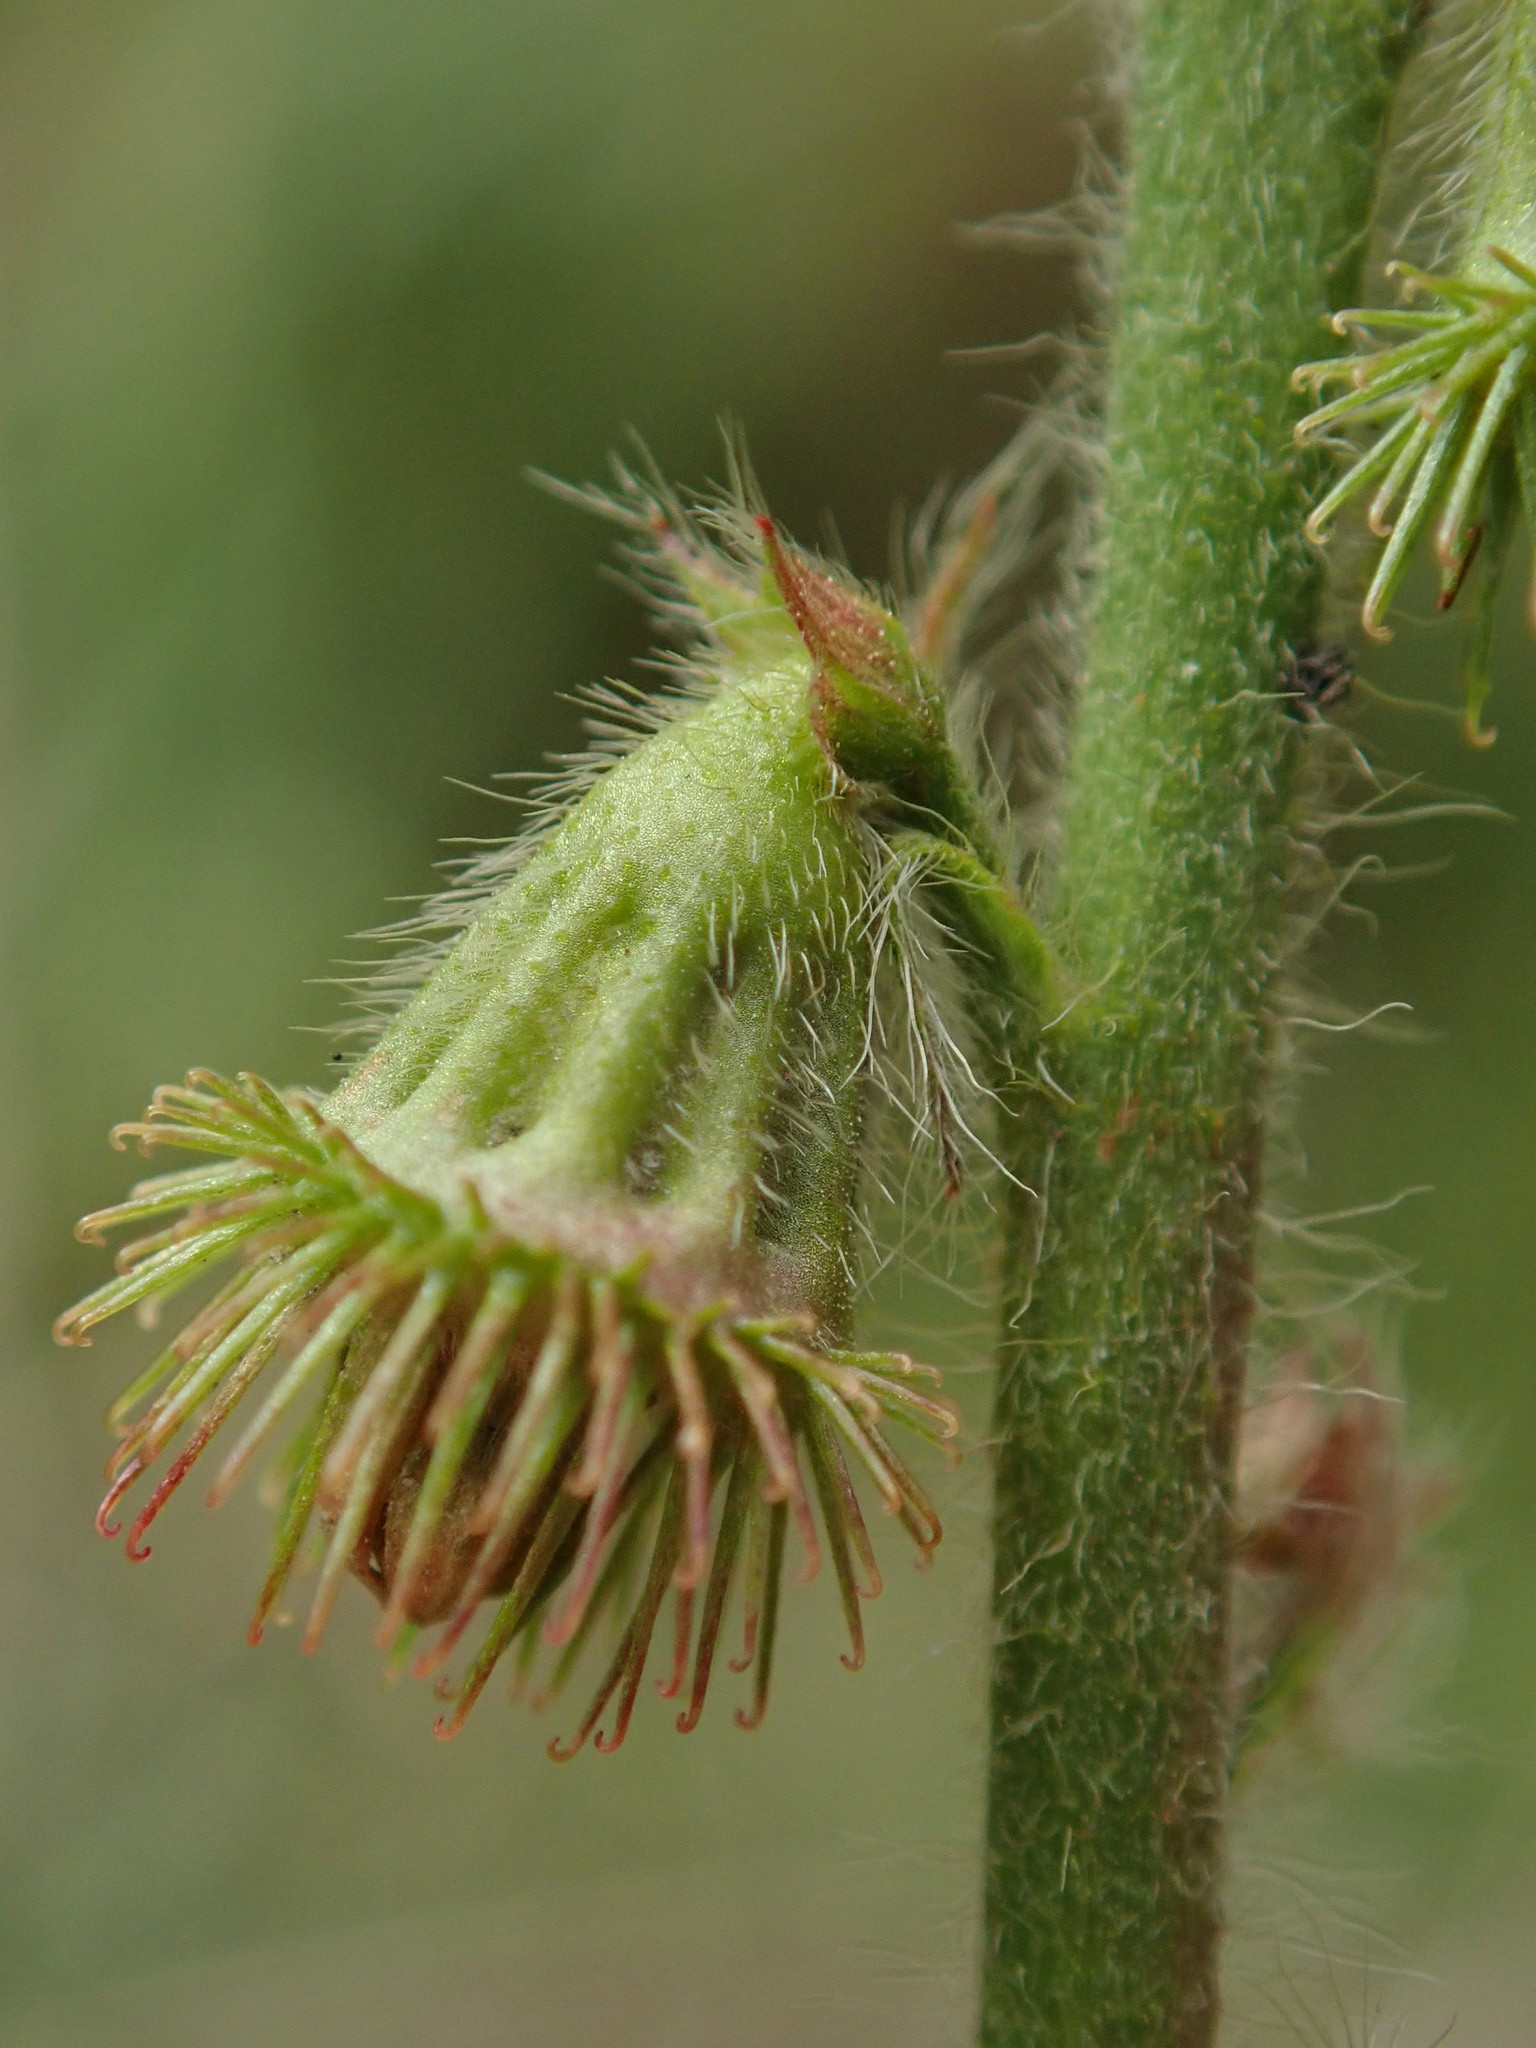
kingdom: Plantae
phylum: Tracheophyta
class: Magnoliopsida
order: Rosales
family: Rosaceae
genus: Agrimonia
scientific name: Agrimonia eupatoria
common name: Agrimony
